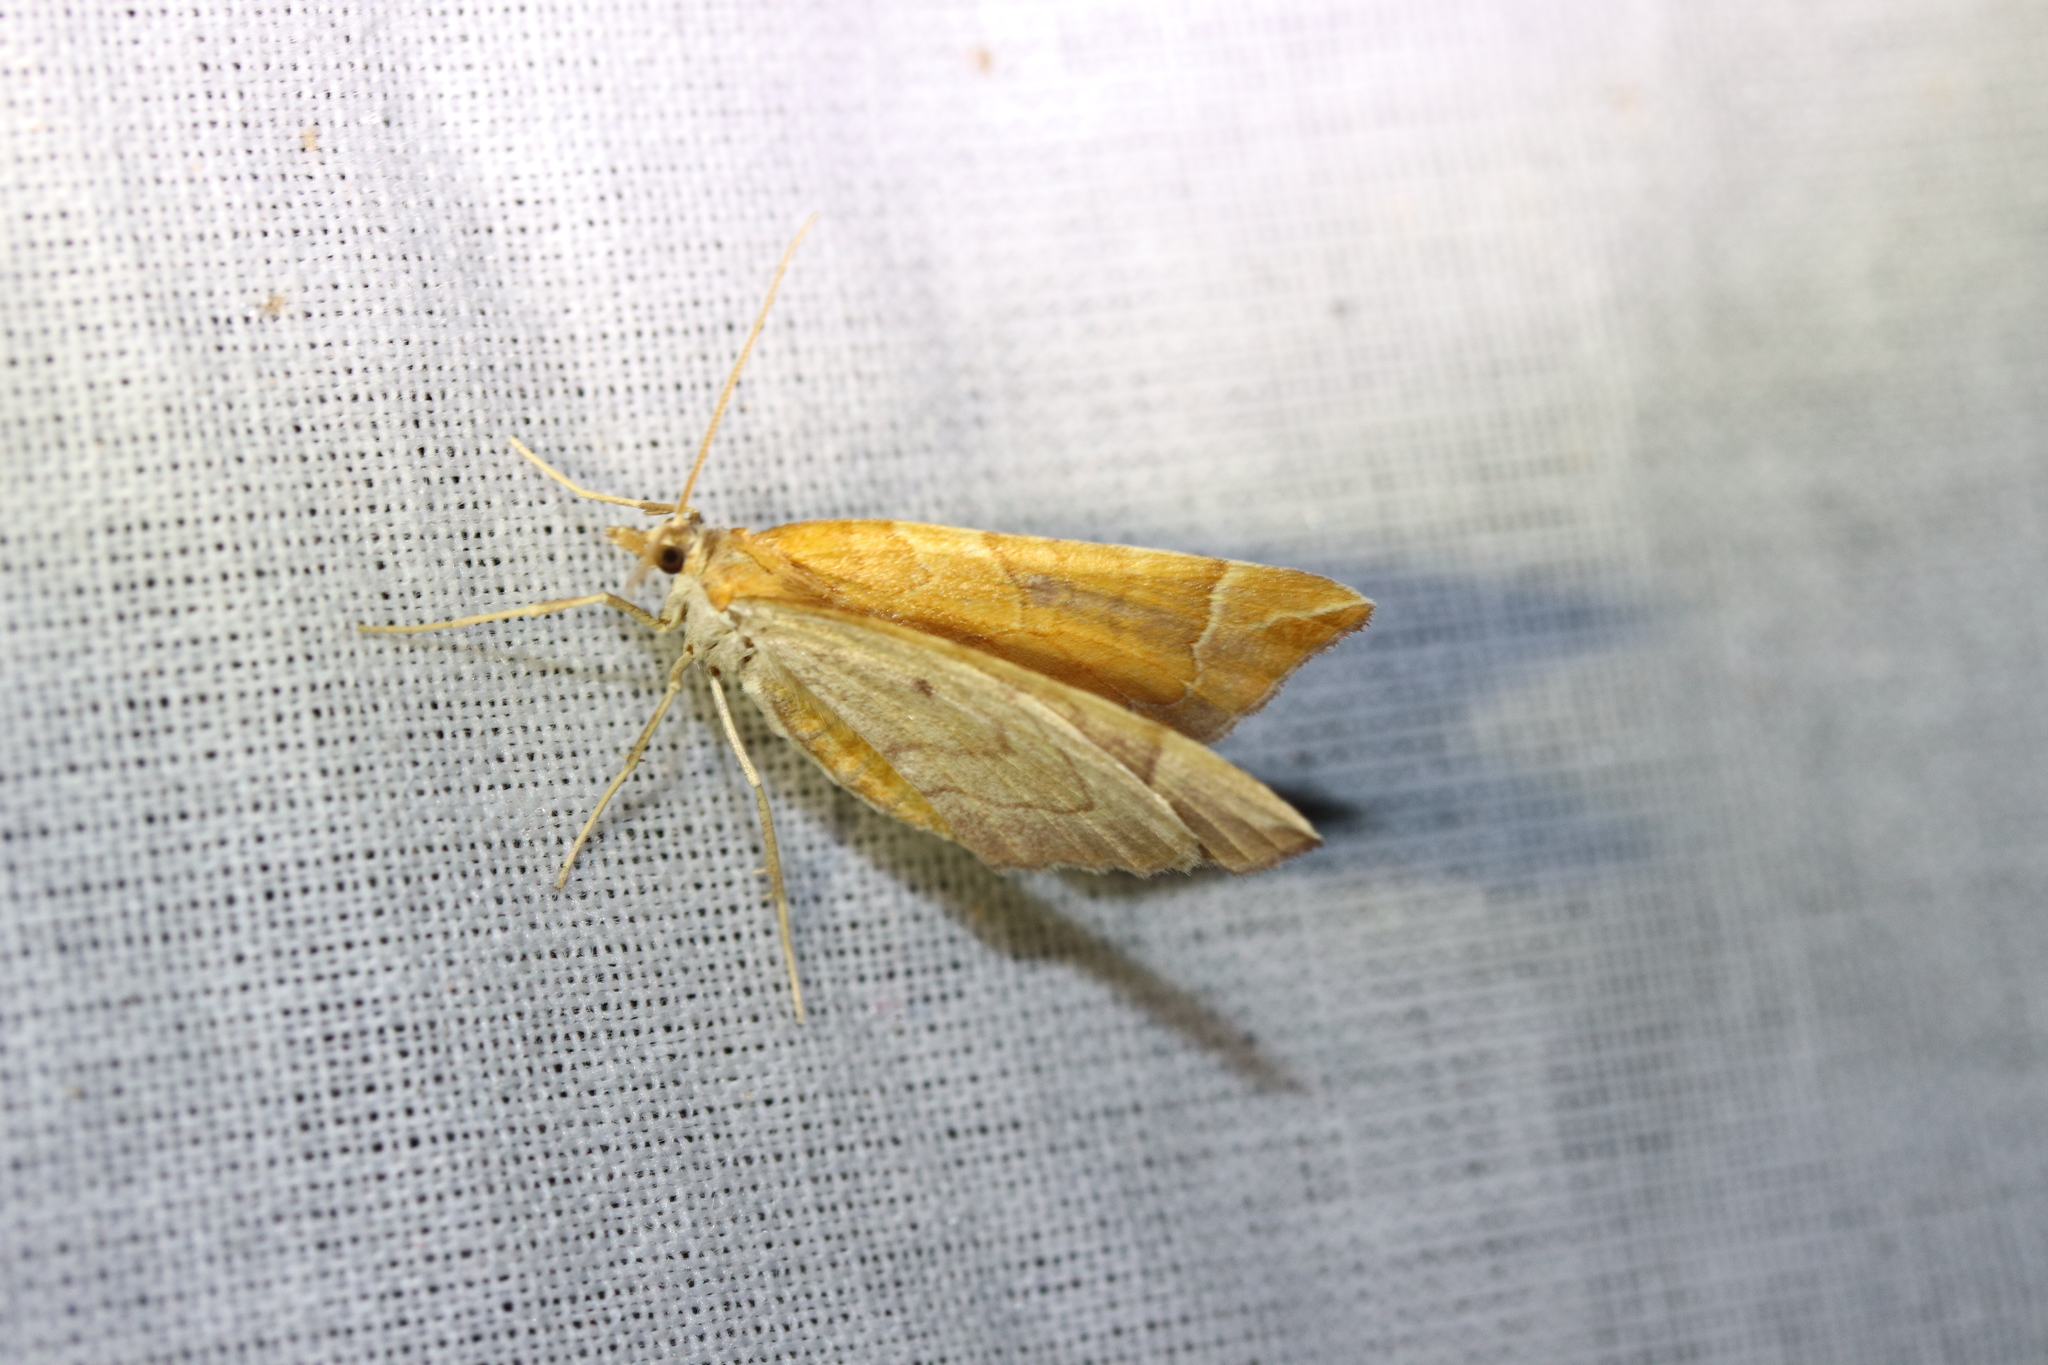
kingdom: Animalia
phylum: Arthropoda
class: Insecta
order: Lepidoptera
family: Geometridae
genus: Eulithis
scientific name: Eulithis testata
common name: Chevron
